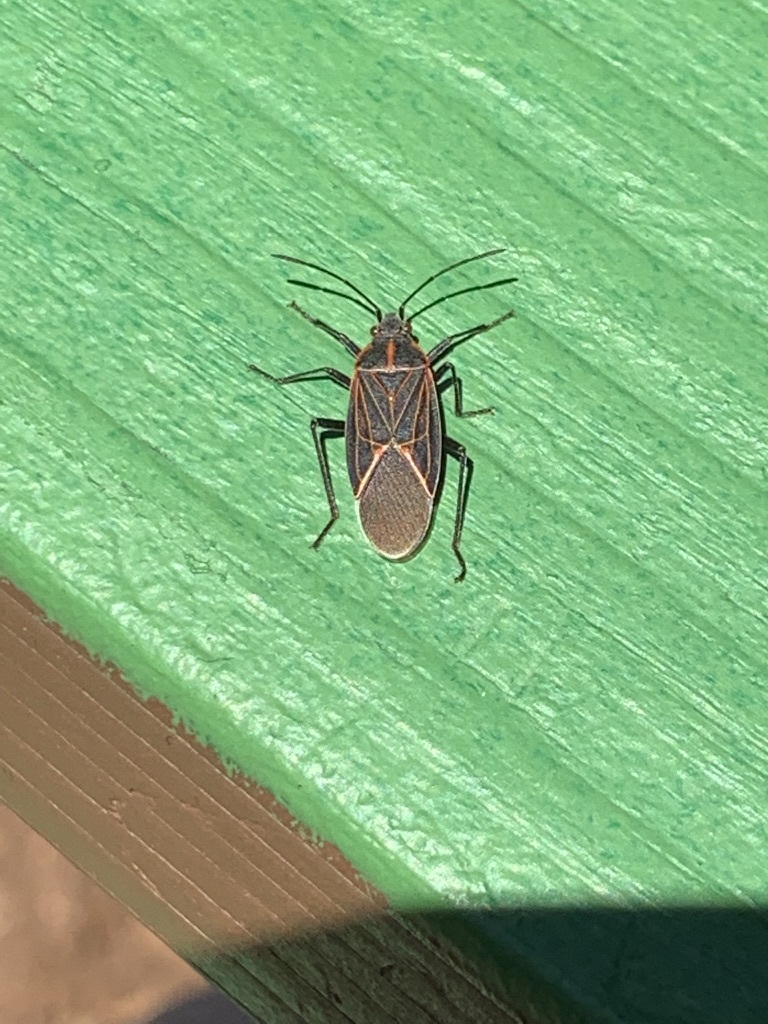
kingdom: Animalia
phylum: Arthropoda
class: Insecta
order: Hemiptera
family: Rhopalidae
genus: Boisea
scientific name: Boisea rubrolineata
